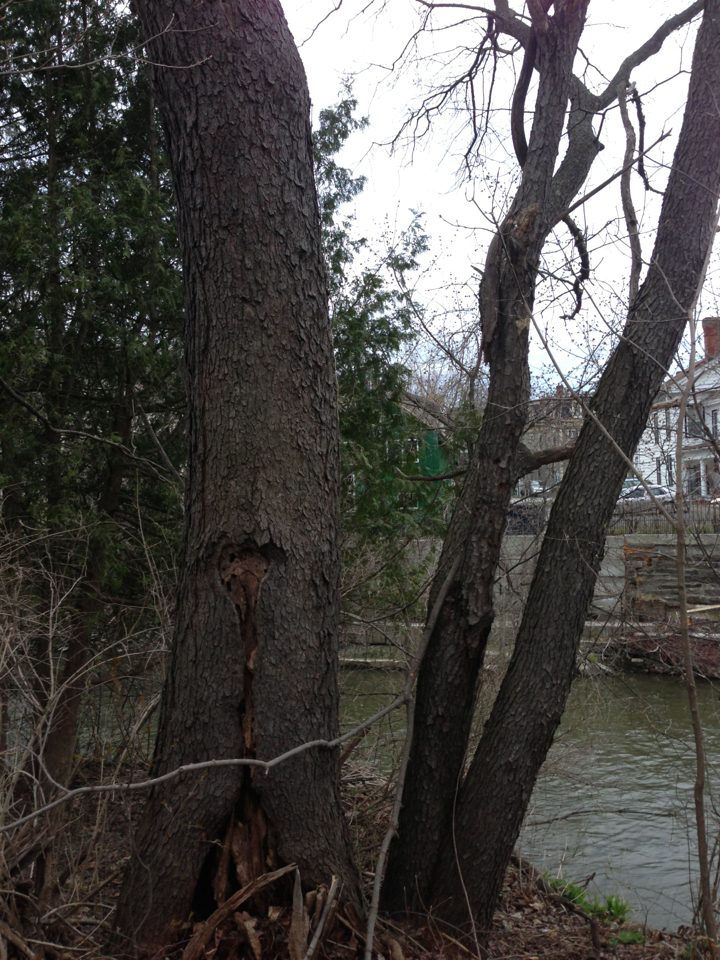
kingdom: Plantae
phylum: Tracheophyta
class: Magnoliopsida
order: Rosales
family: Rosaceae
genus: Prunus
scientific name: Prunus serotina
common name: Black cherry
